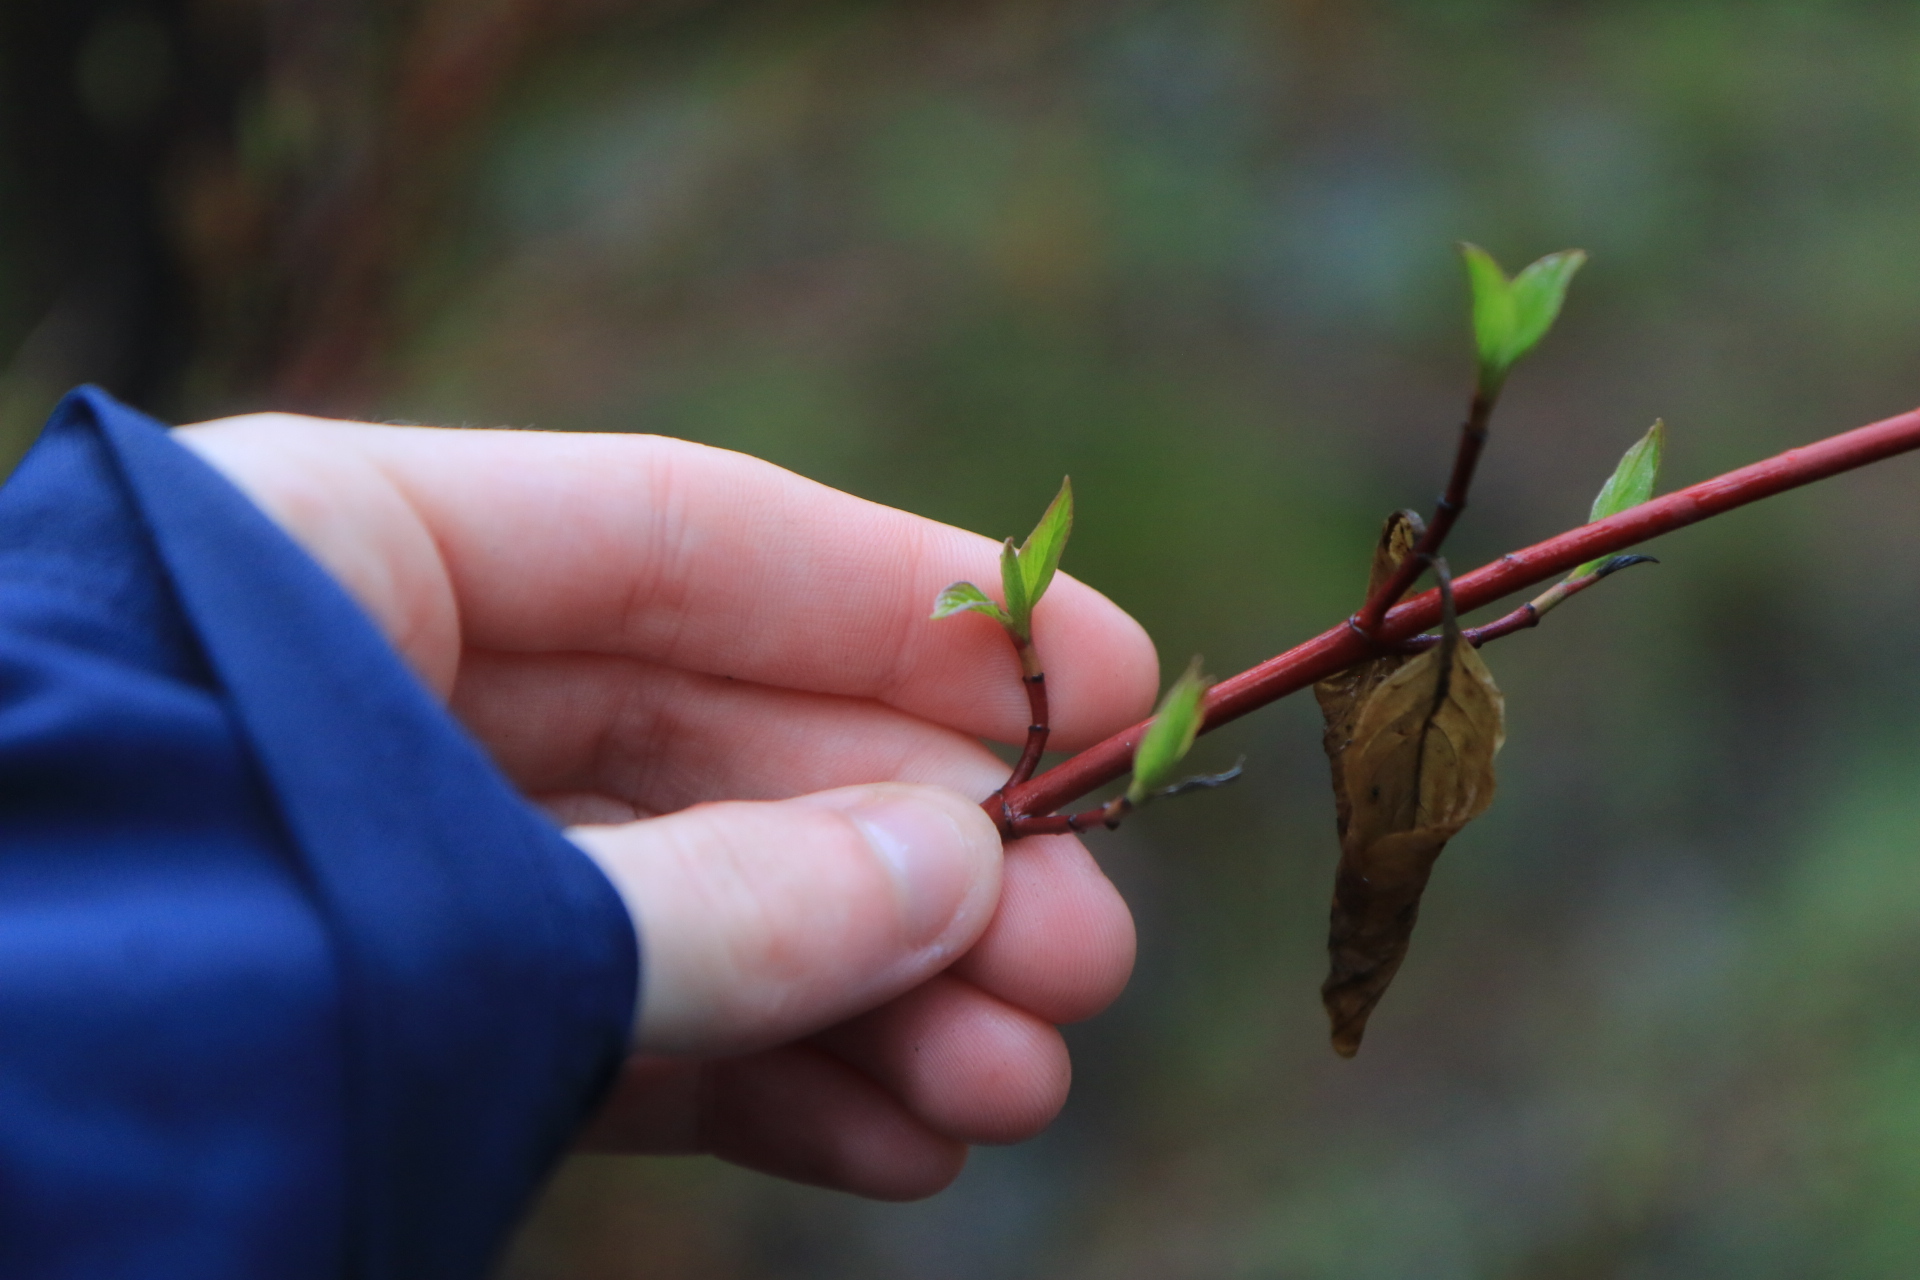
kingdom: Plantae
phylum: Tracheophyta
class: Magnoliopsida
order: Cornales
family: Cornaceae
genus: Cornus
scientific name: Cornus sericea
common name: Red-osier dogwood
